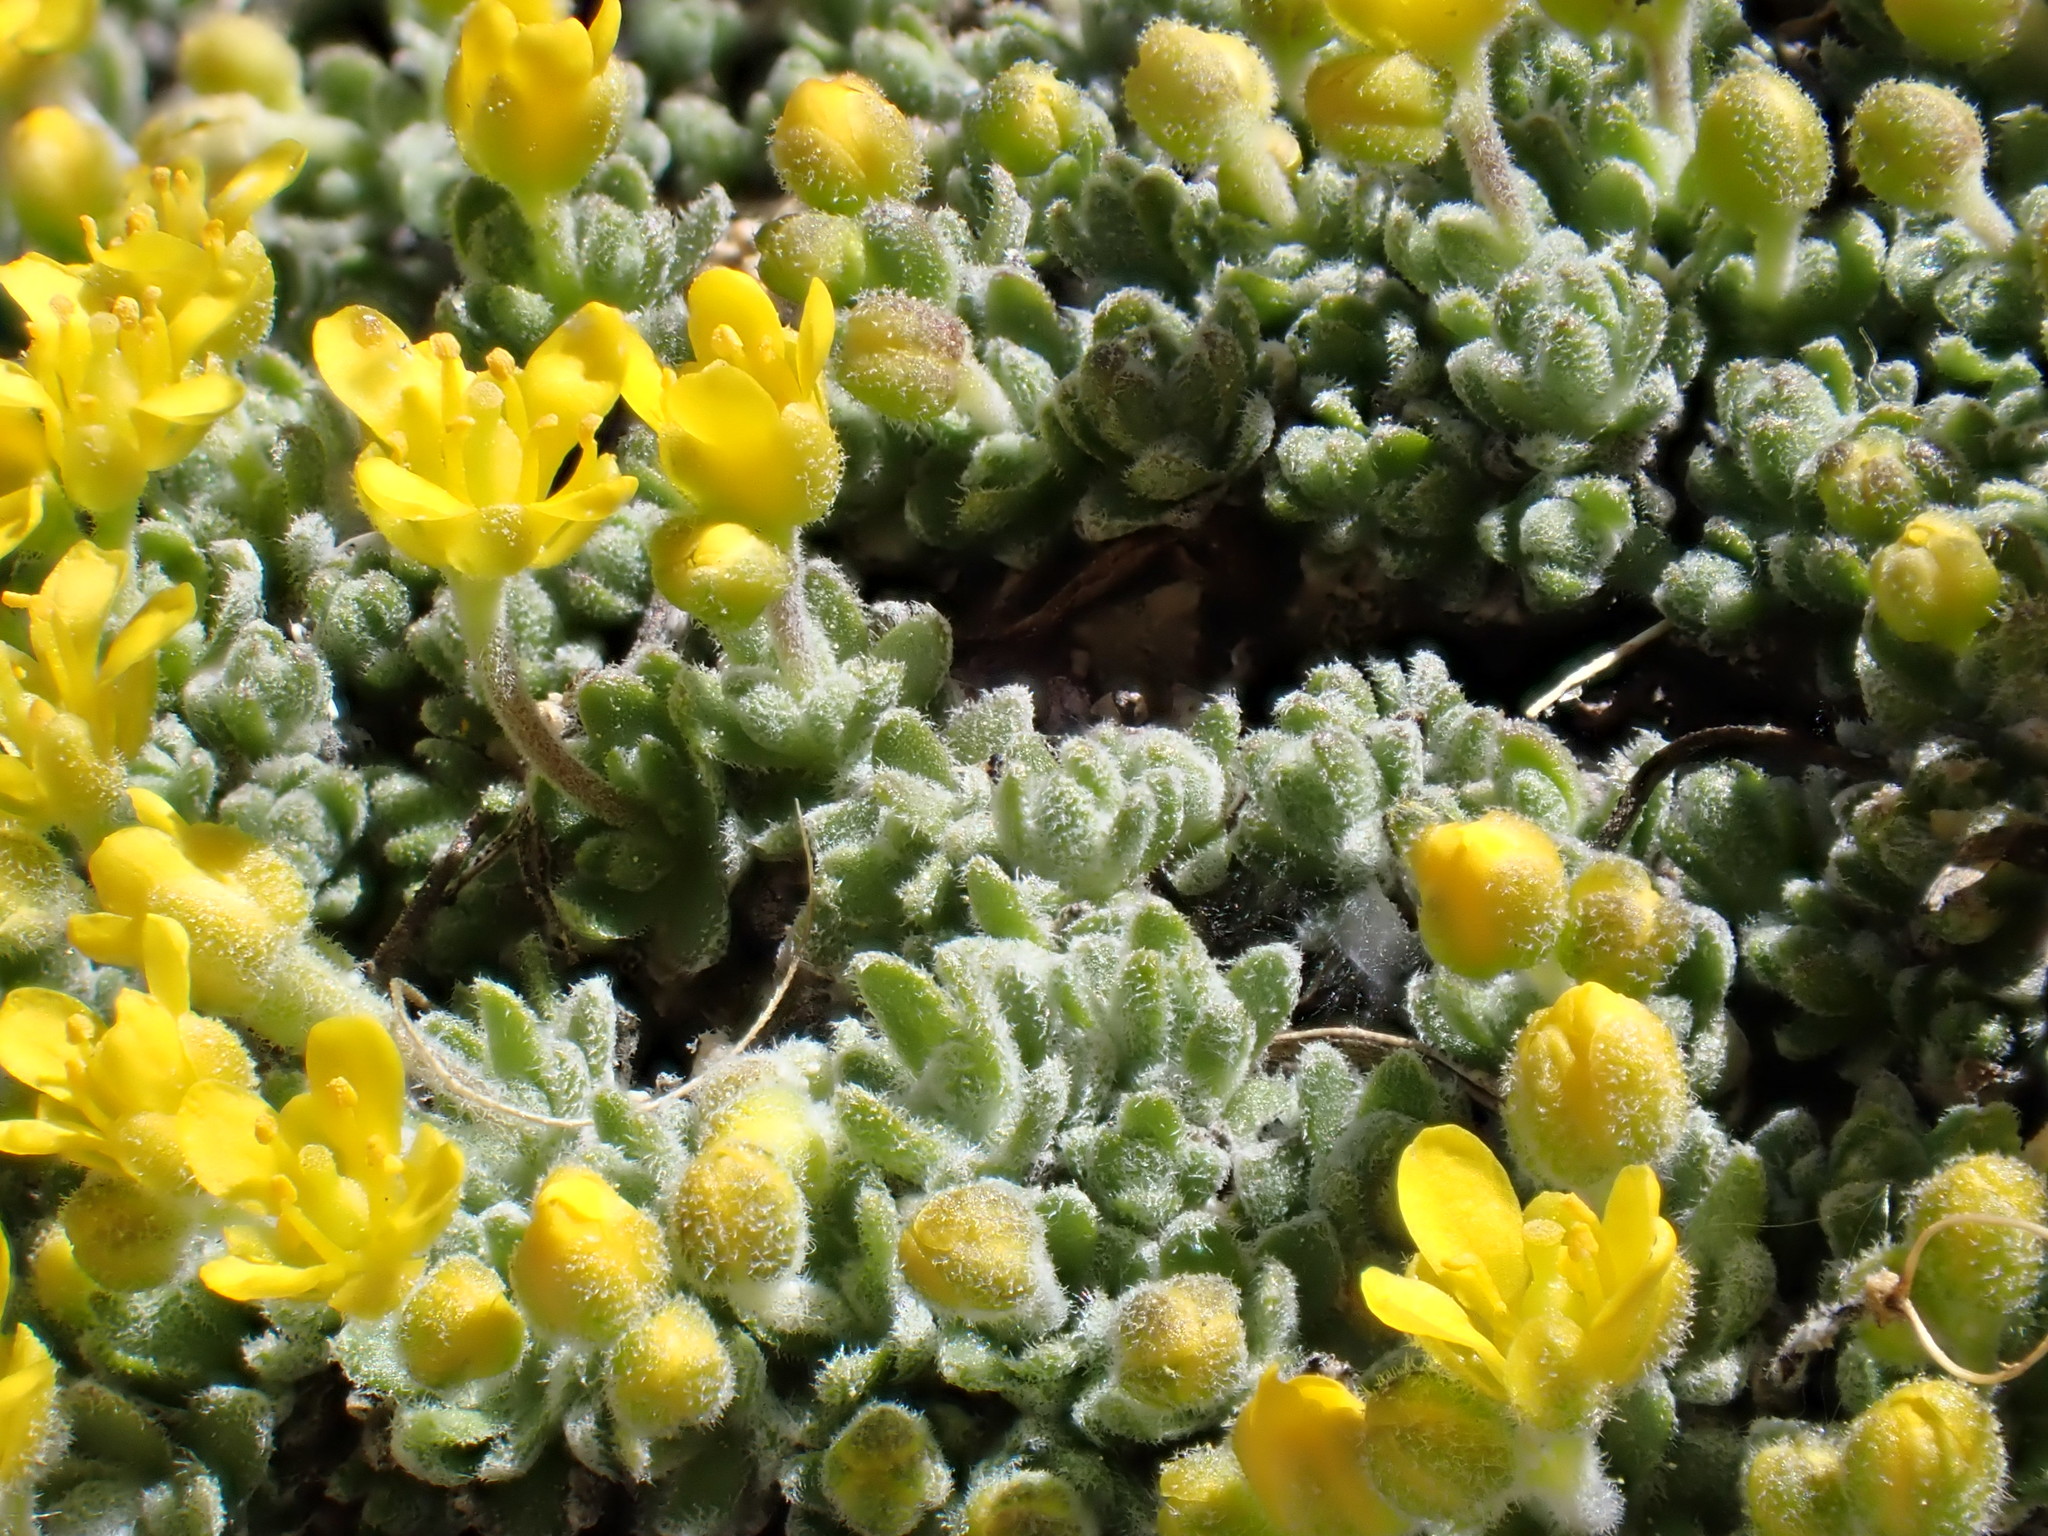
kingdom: Plantae
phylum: Tracheophyta
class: Magnoliopsida
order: Brassicales
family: Brassicaceae
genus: Draba
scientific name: Draba subumbellata
